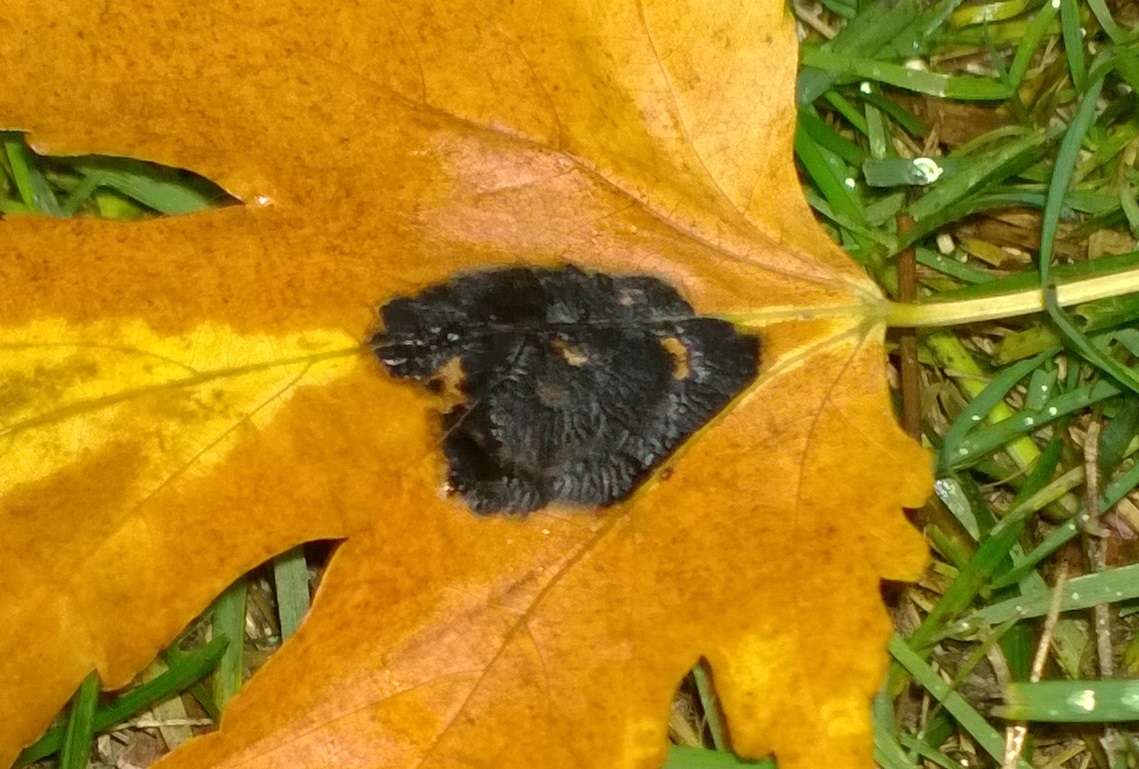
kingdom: Fungi
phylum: Ascomycota
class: Leotiomycetes
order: Rhytismatales
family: Rhytismataceae
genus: Rhytisma
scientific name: Rhytisma americanum
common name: American tar spot
